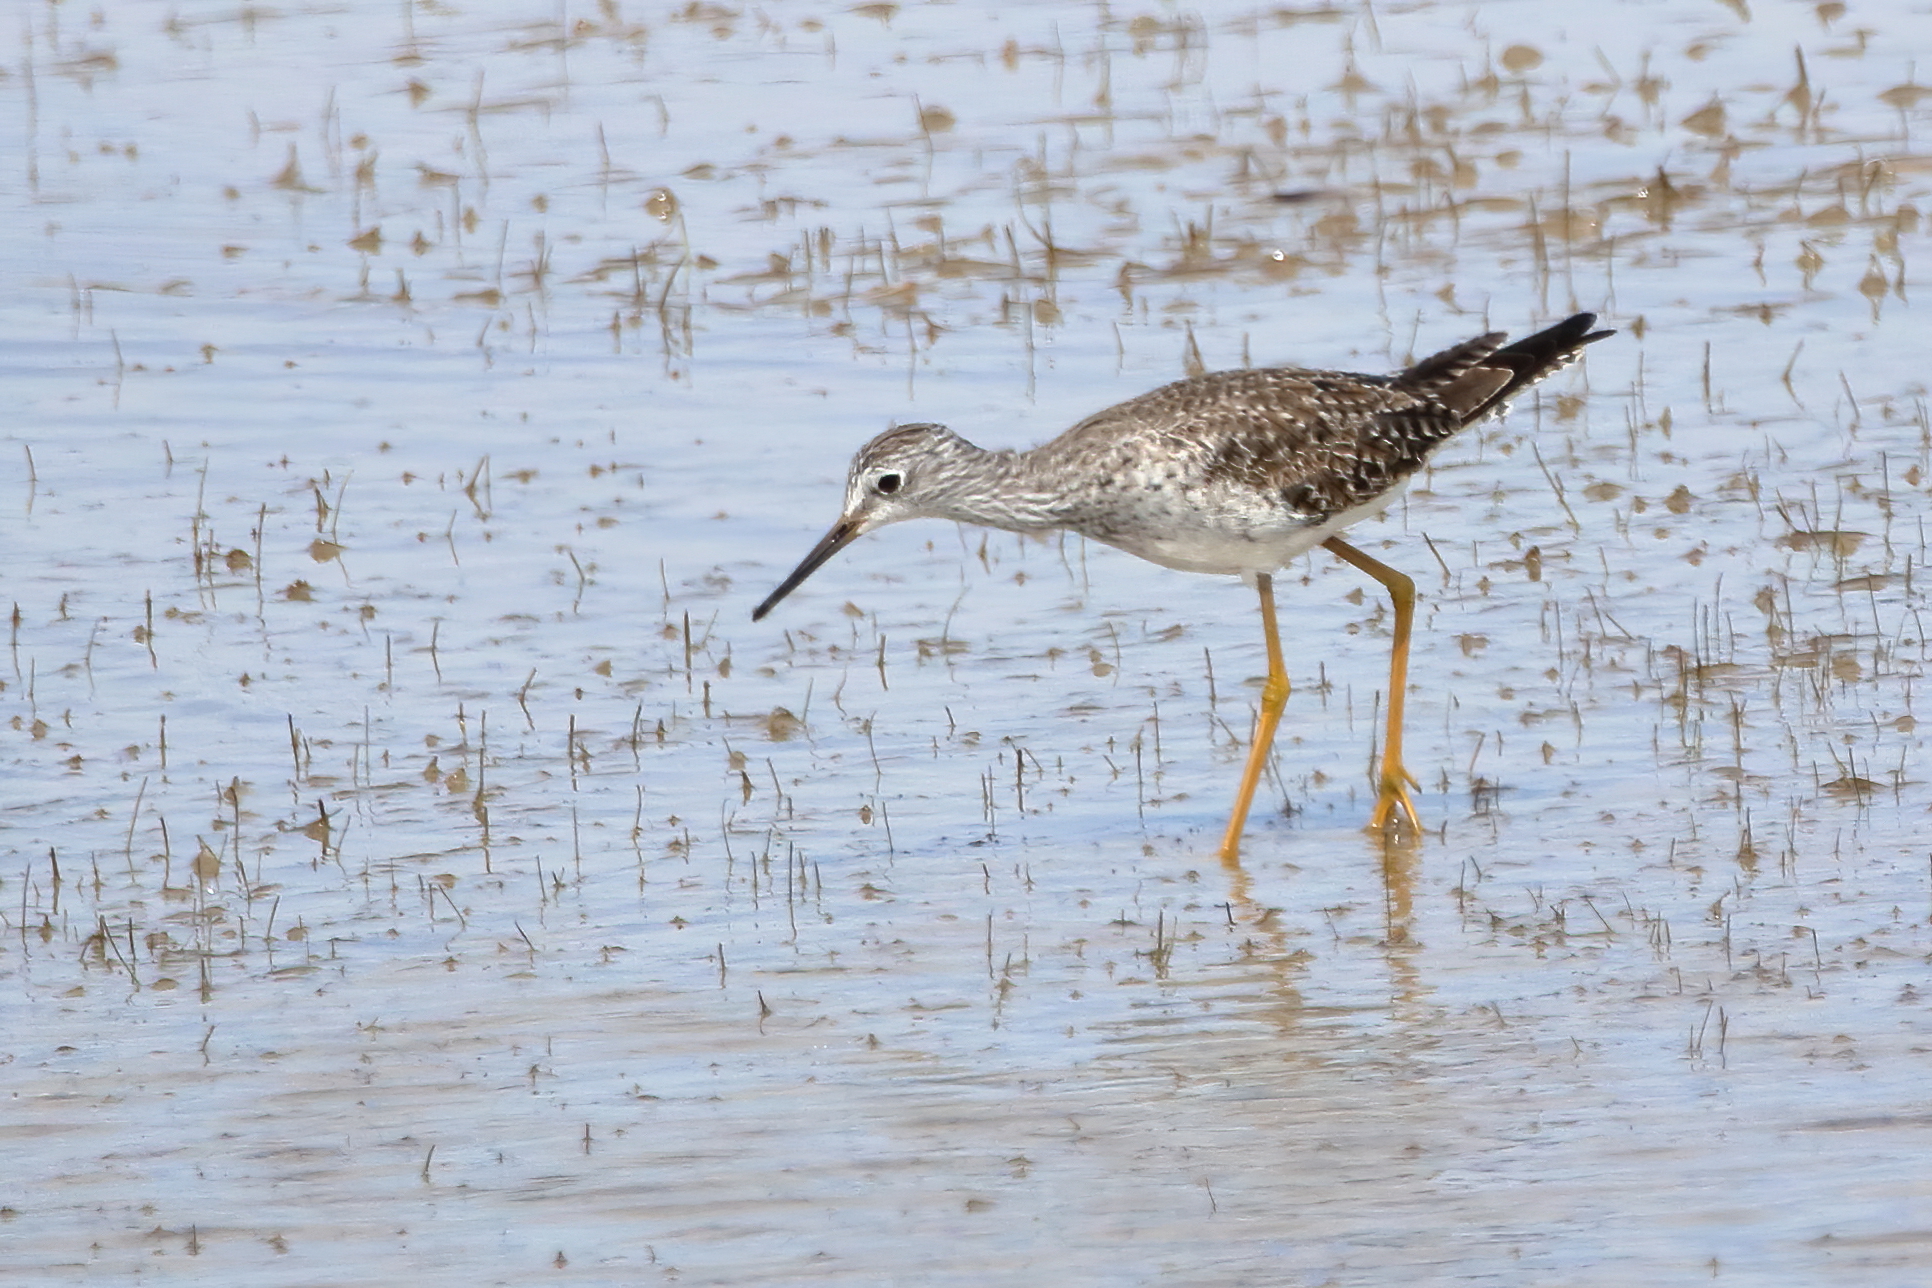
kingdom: Animalia
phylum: Chordata
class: Aves
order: Charadriiformes
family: Scolopacidae
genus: Tringa
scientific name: Tringa flavipes
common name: Lesser yellowlegs
